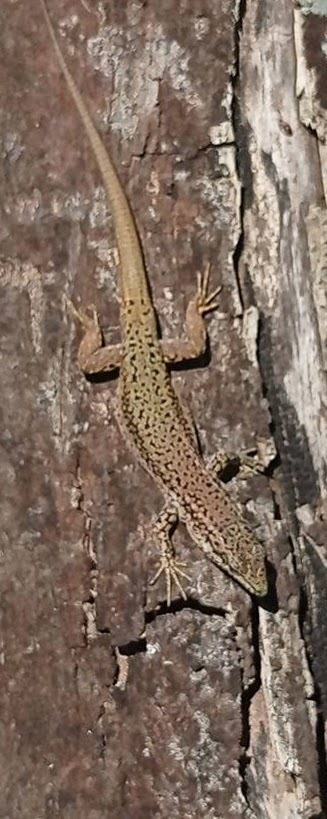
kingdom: Animalia
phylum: Chordata
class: Squamata
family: Lacertidae
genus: Podarcis
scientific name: Podarcis virescens
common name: Geniez’s wall lizard
